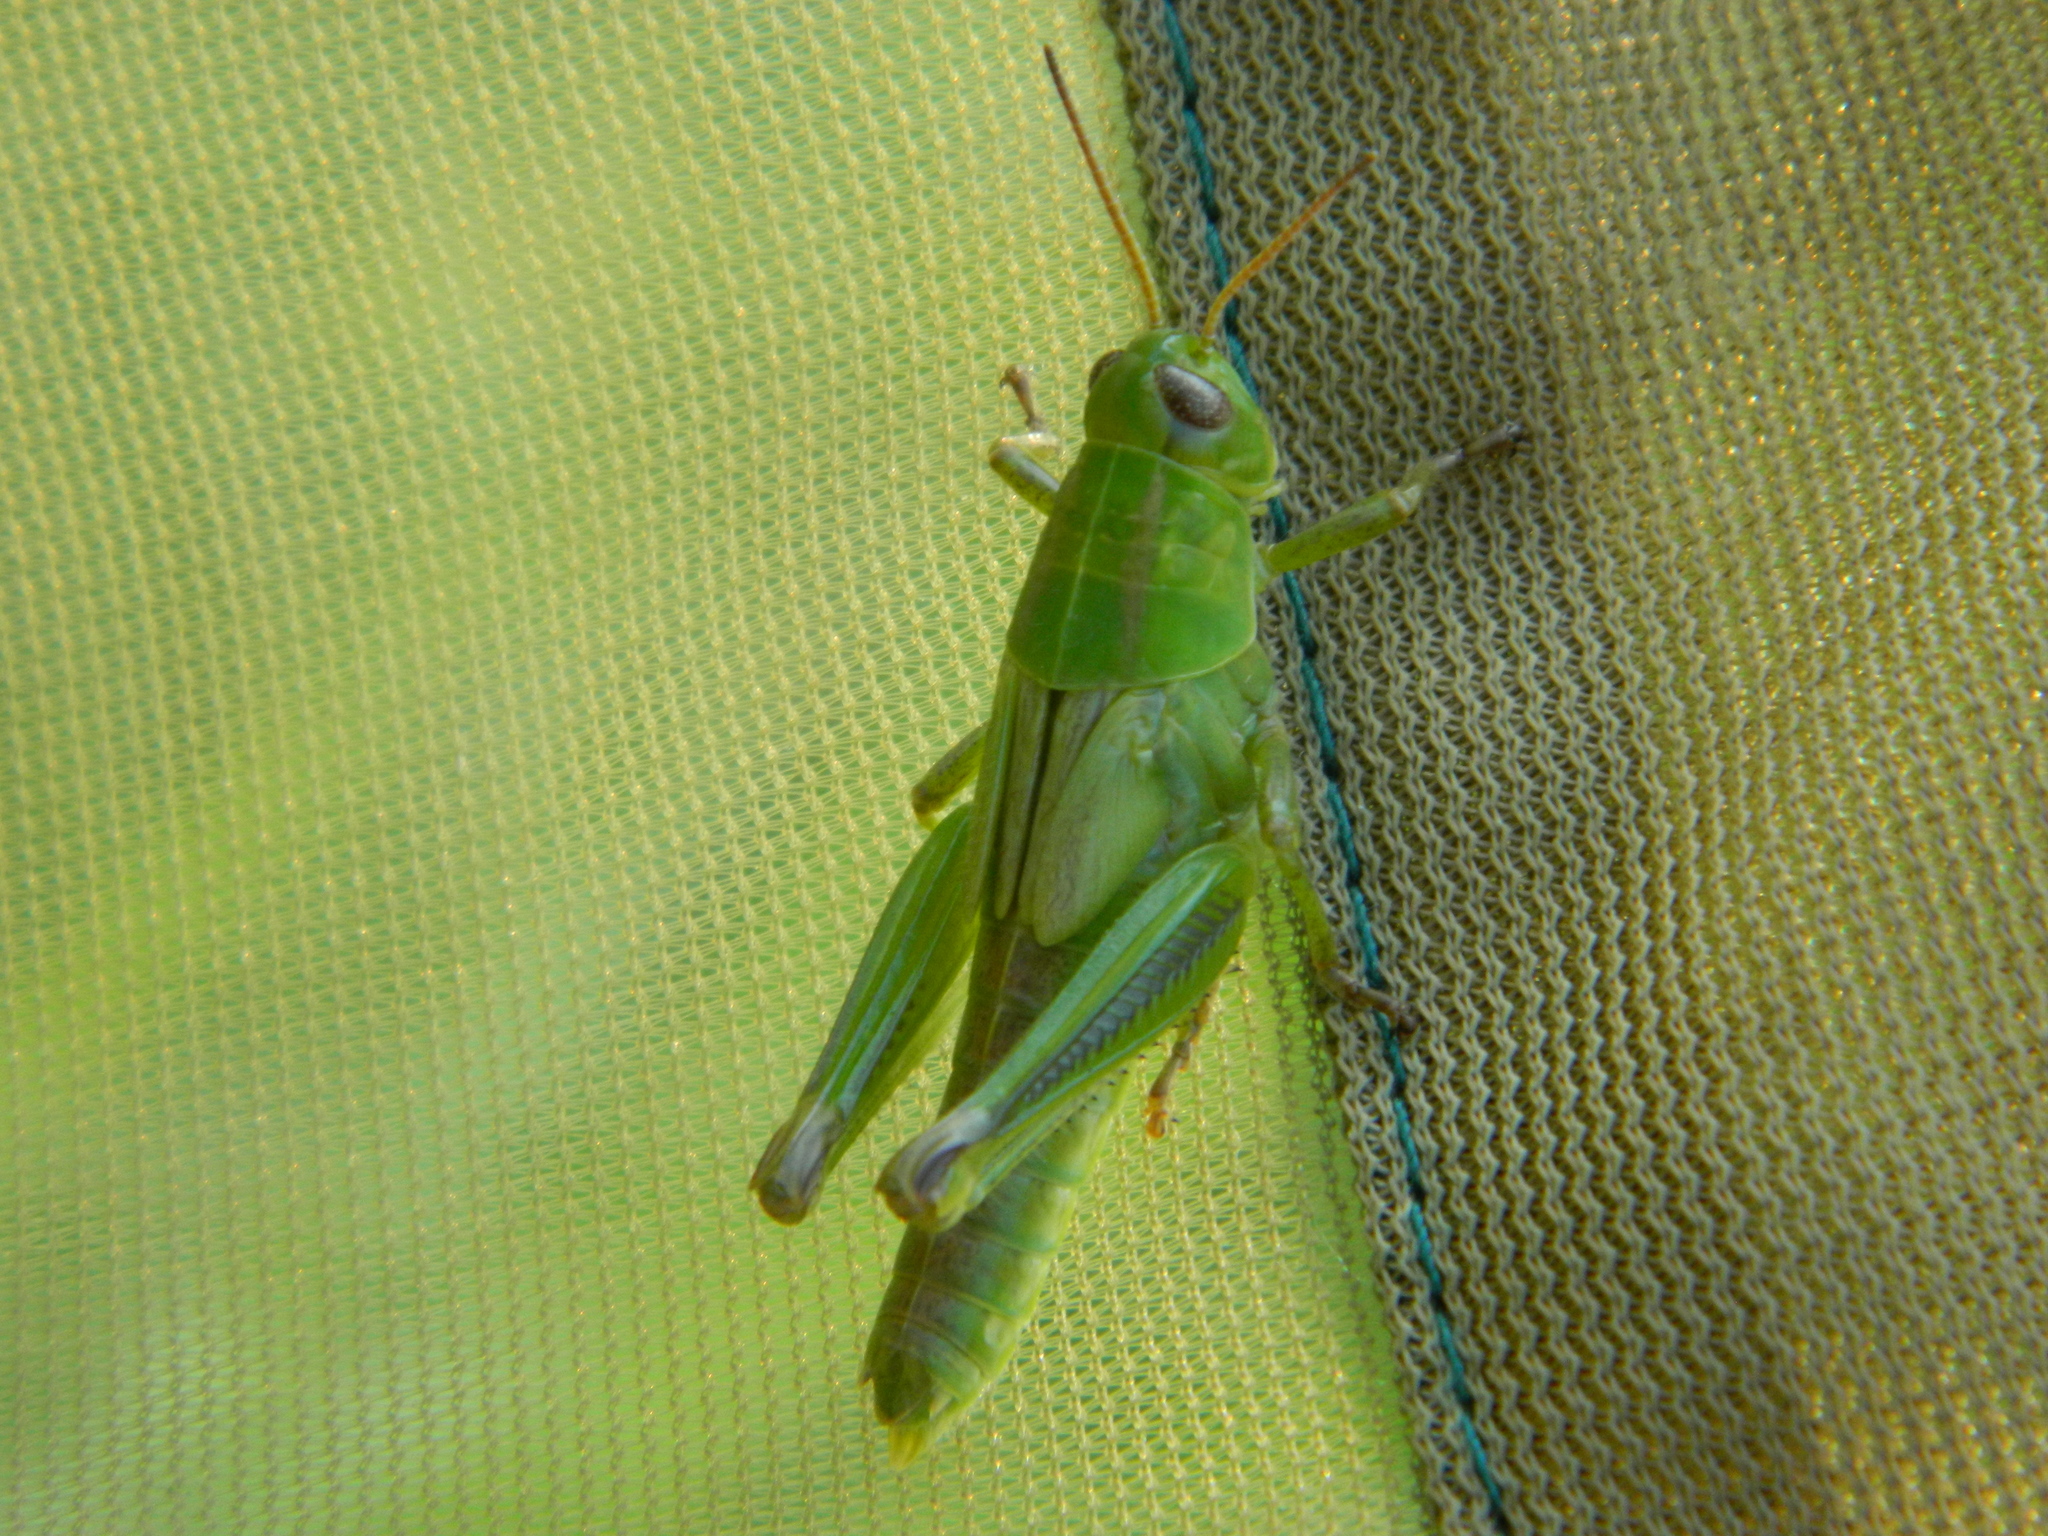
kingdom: Animalia
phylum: Arthropoda
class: Insecta
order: Orthoptera
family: Acrididae
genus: Melanoplus
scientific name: Melanoplus bivittatus
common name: Two-striped grasshopper
